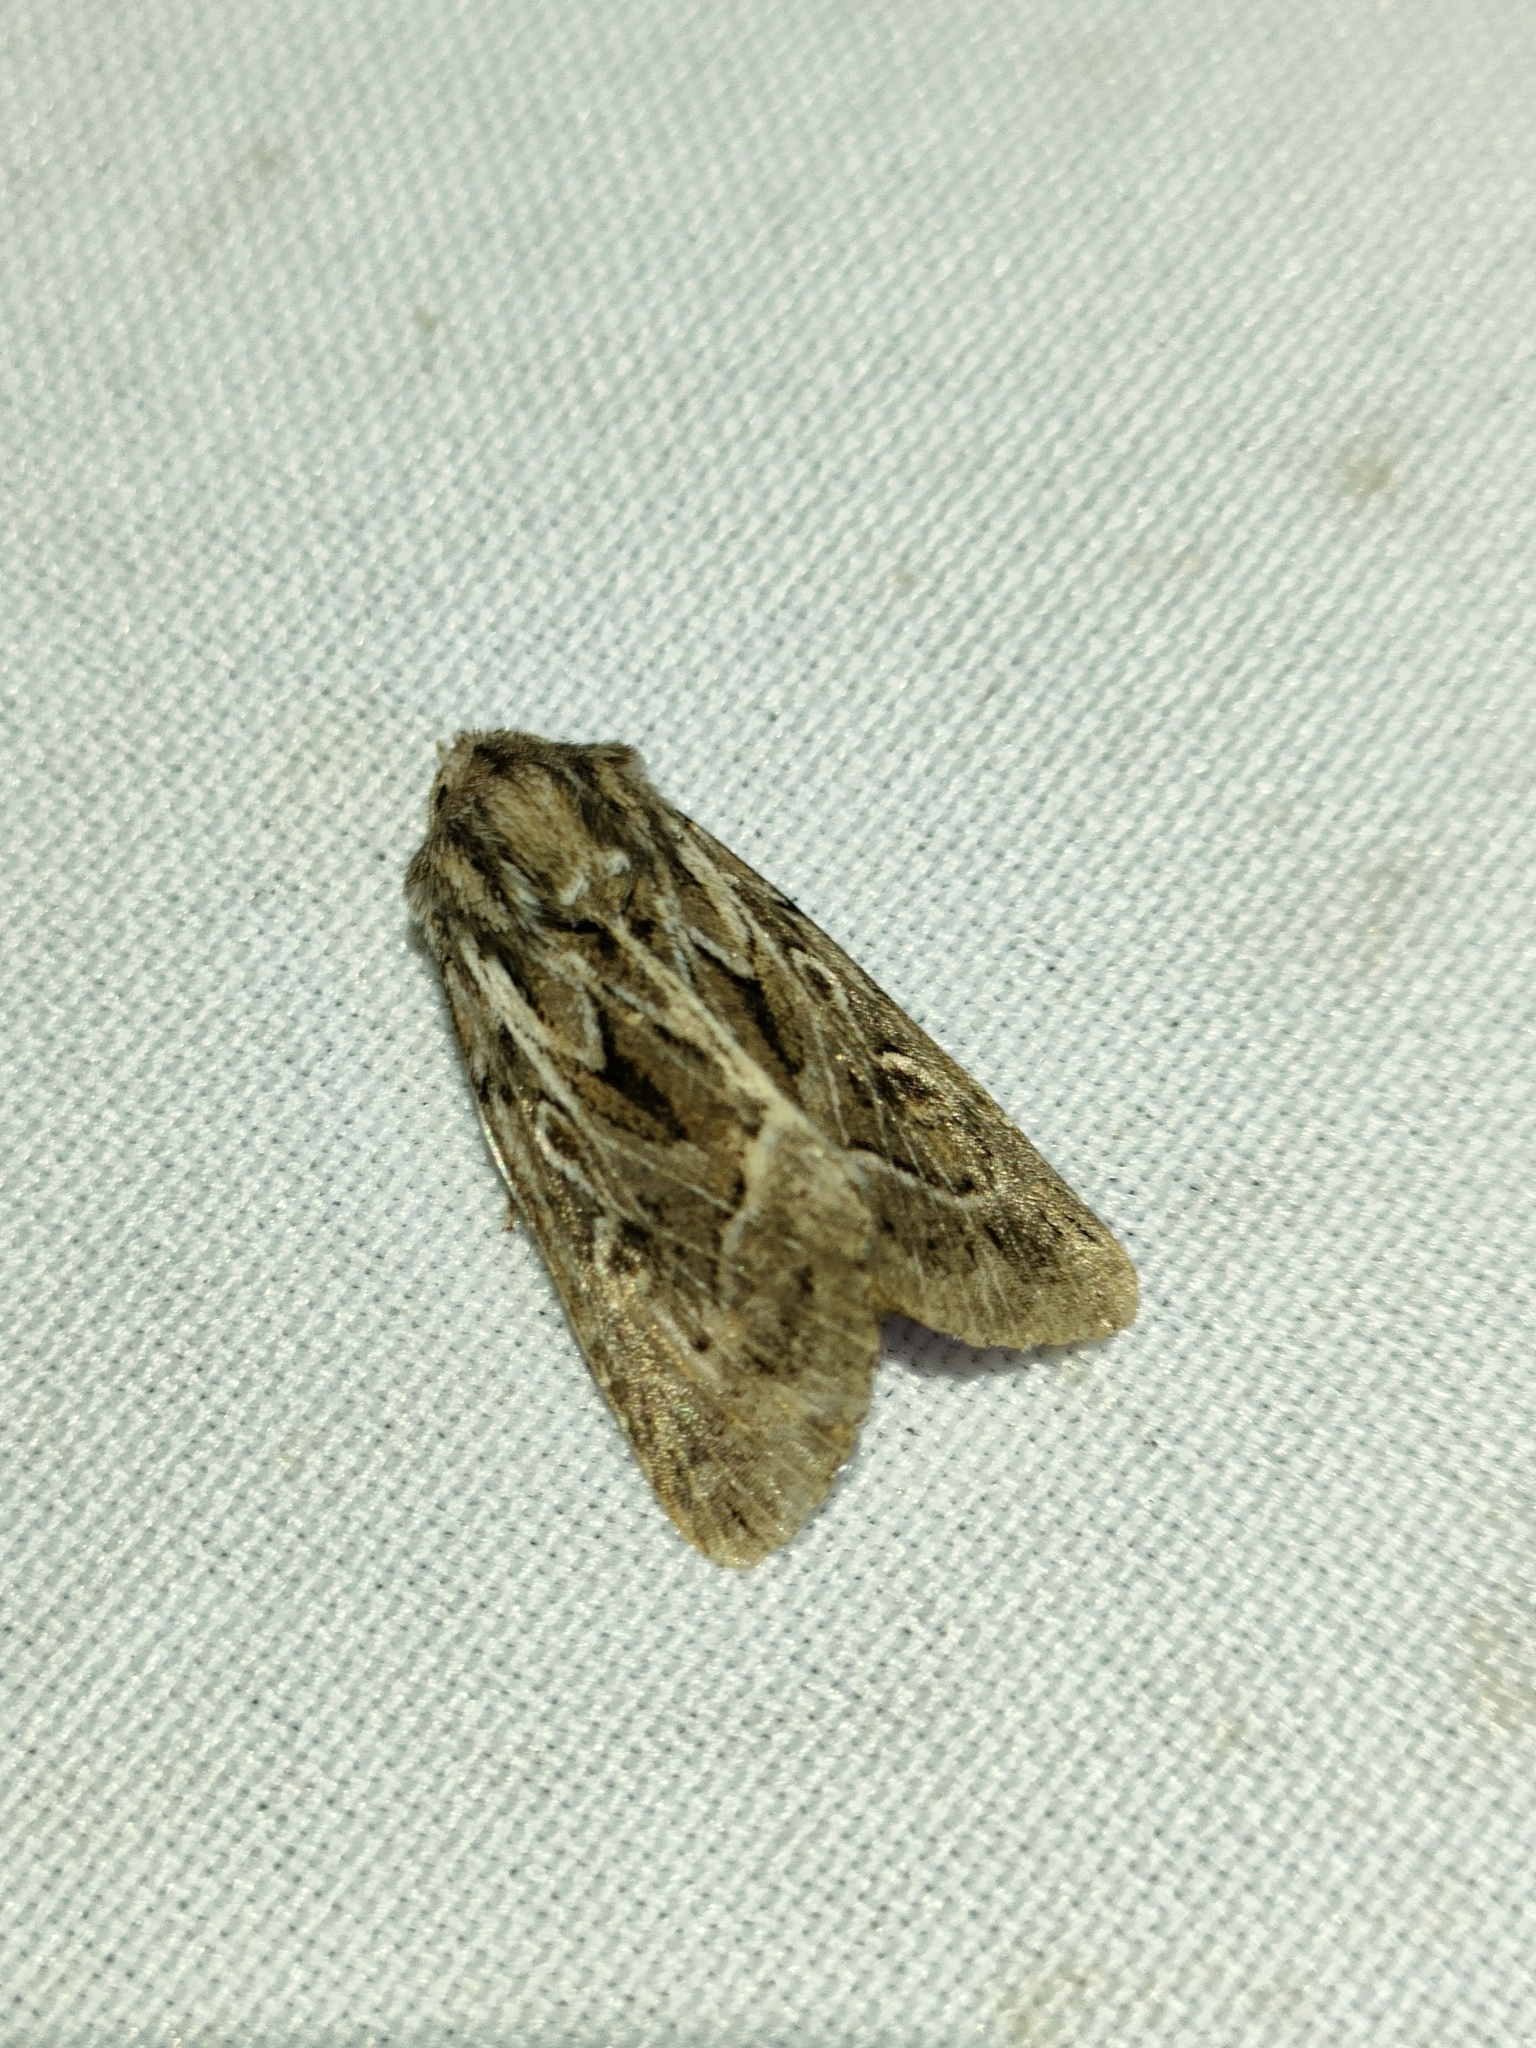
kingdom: Animalia
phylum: Arthropoda
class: Insecta
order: Lepidoptera
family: Noctuidae
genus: Thalpophila
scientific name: Thalpophila vitalba
